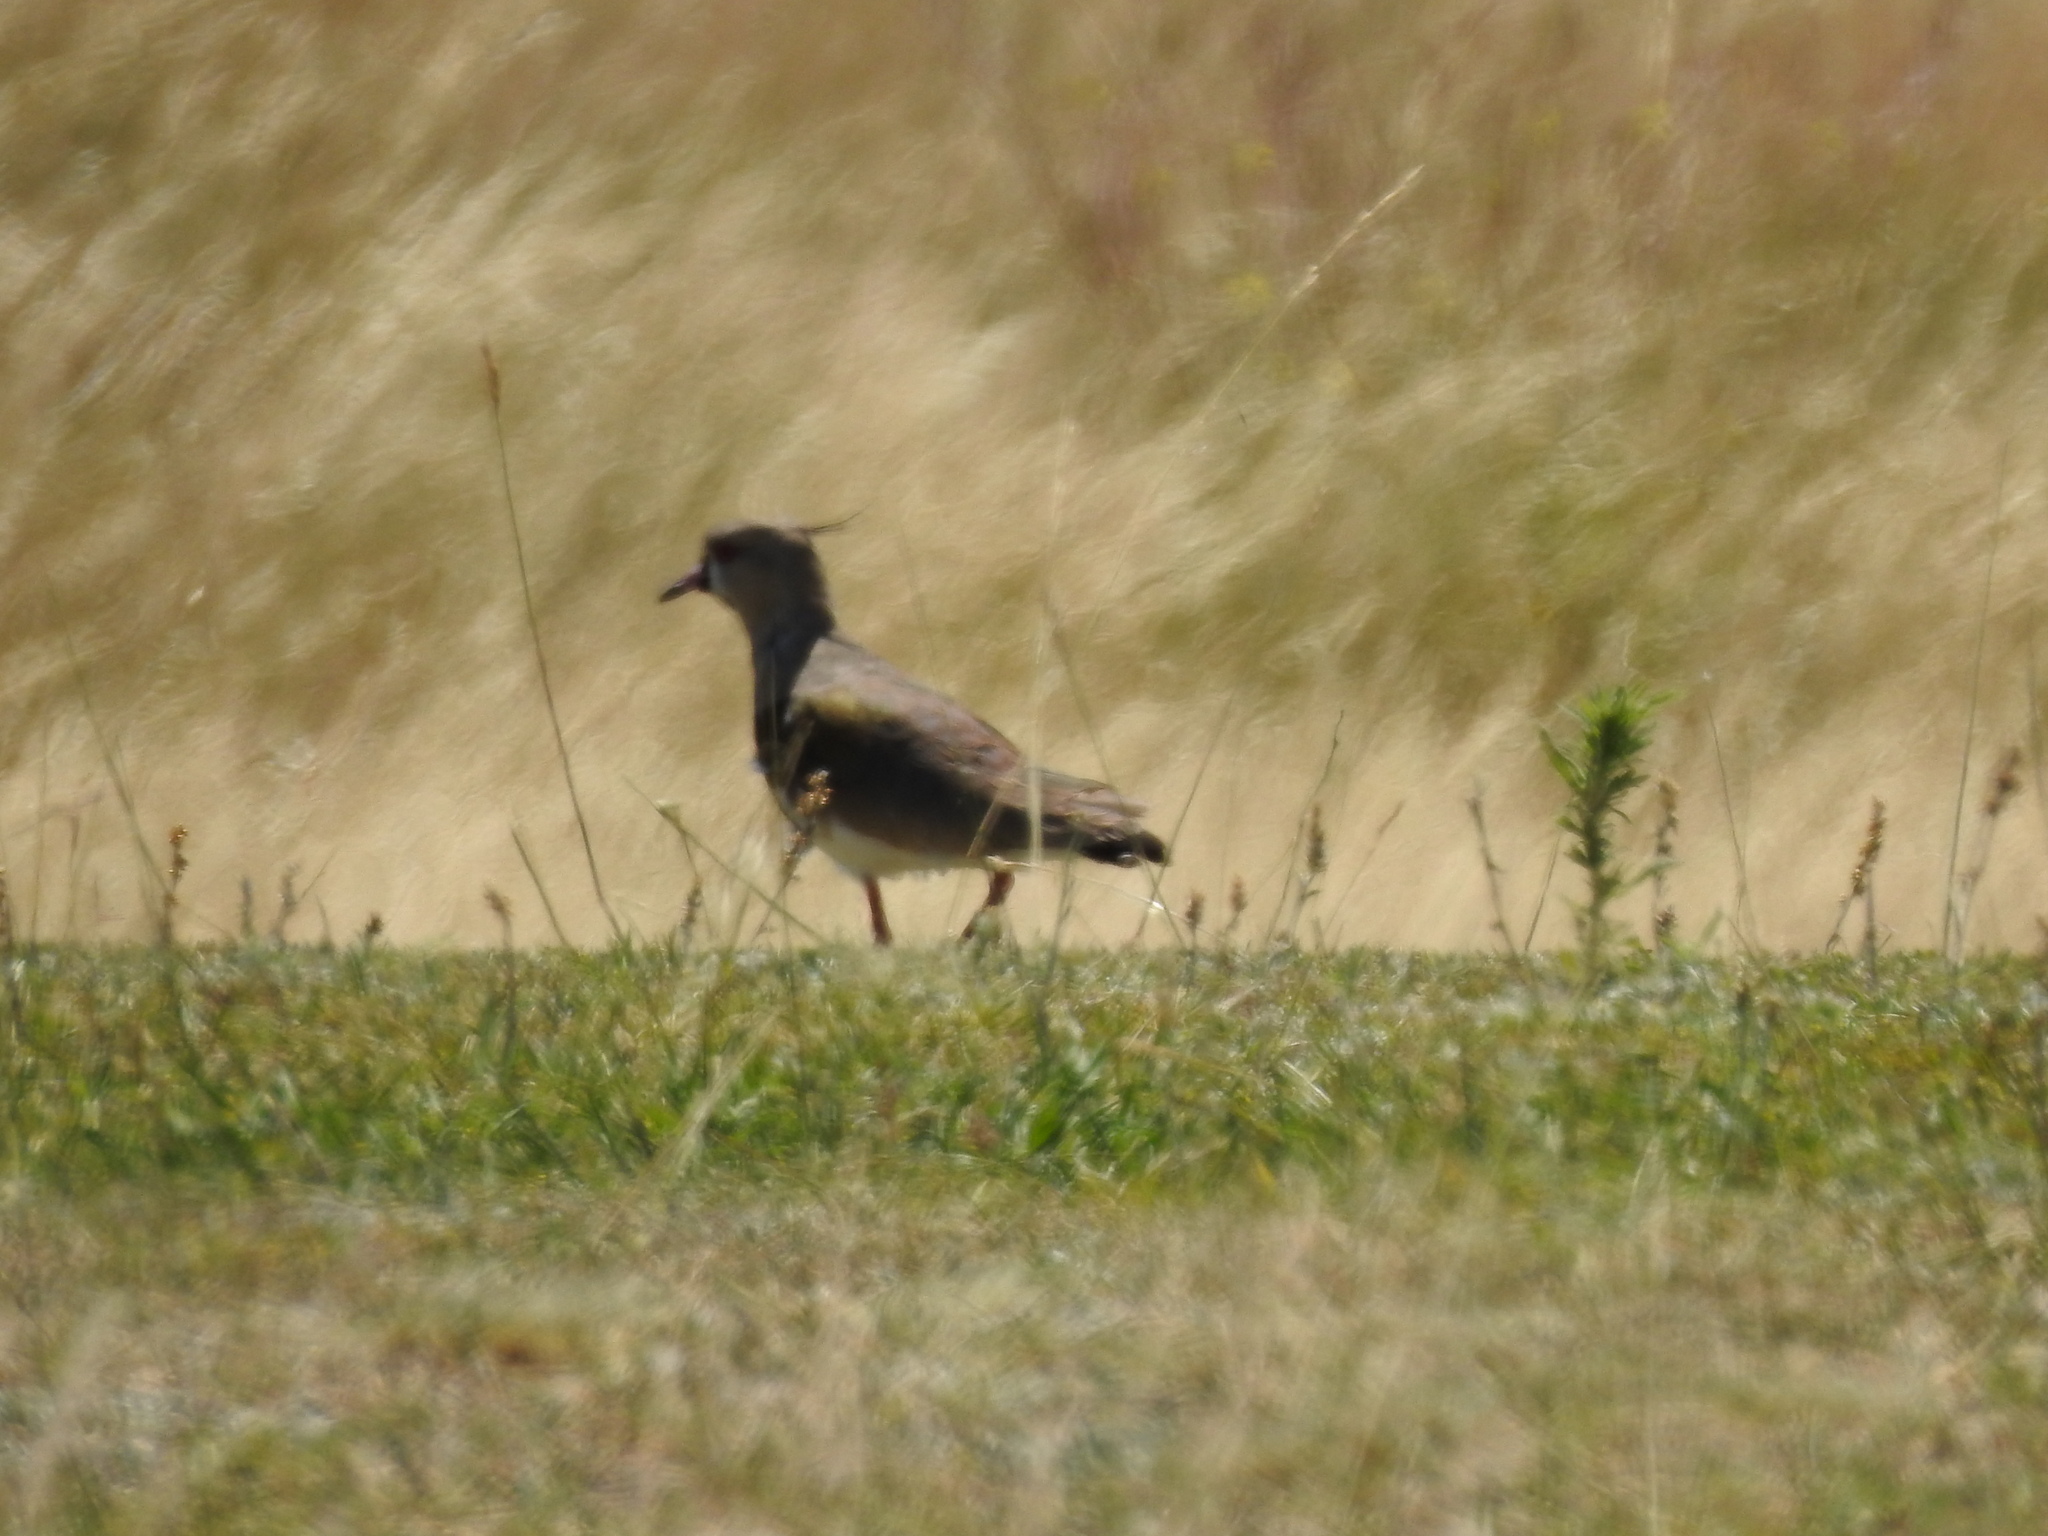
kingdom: Animalia
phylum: Chordata
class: Aves
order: Charadriiformes
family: Charadriidae
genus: Vanellus
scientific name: Vanellus chilensis
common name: Southern lapwing
